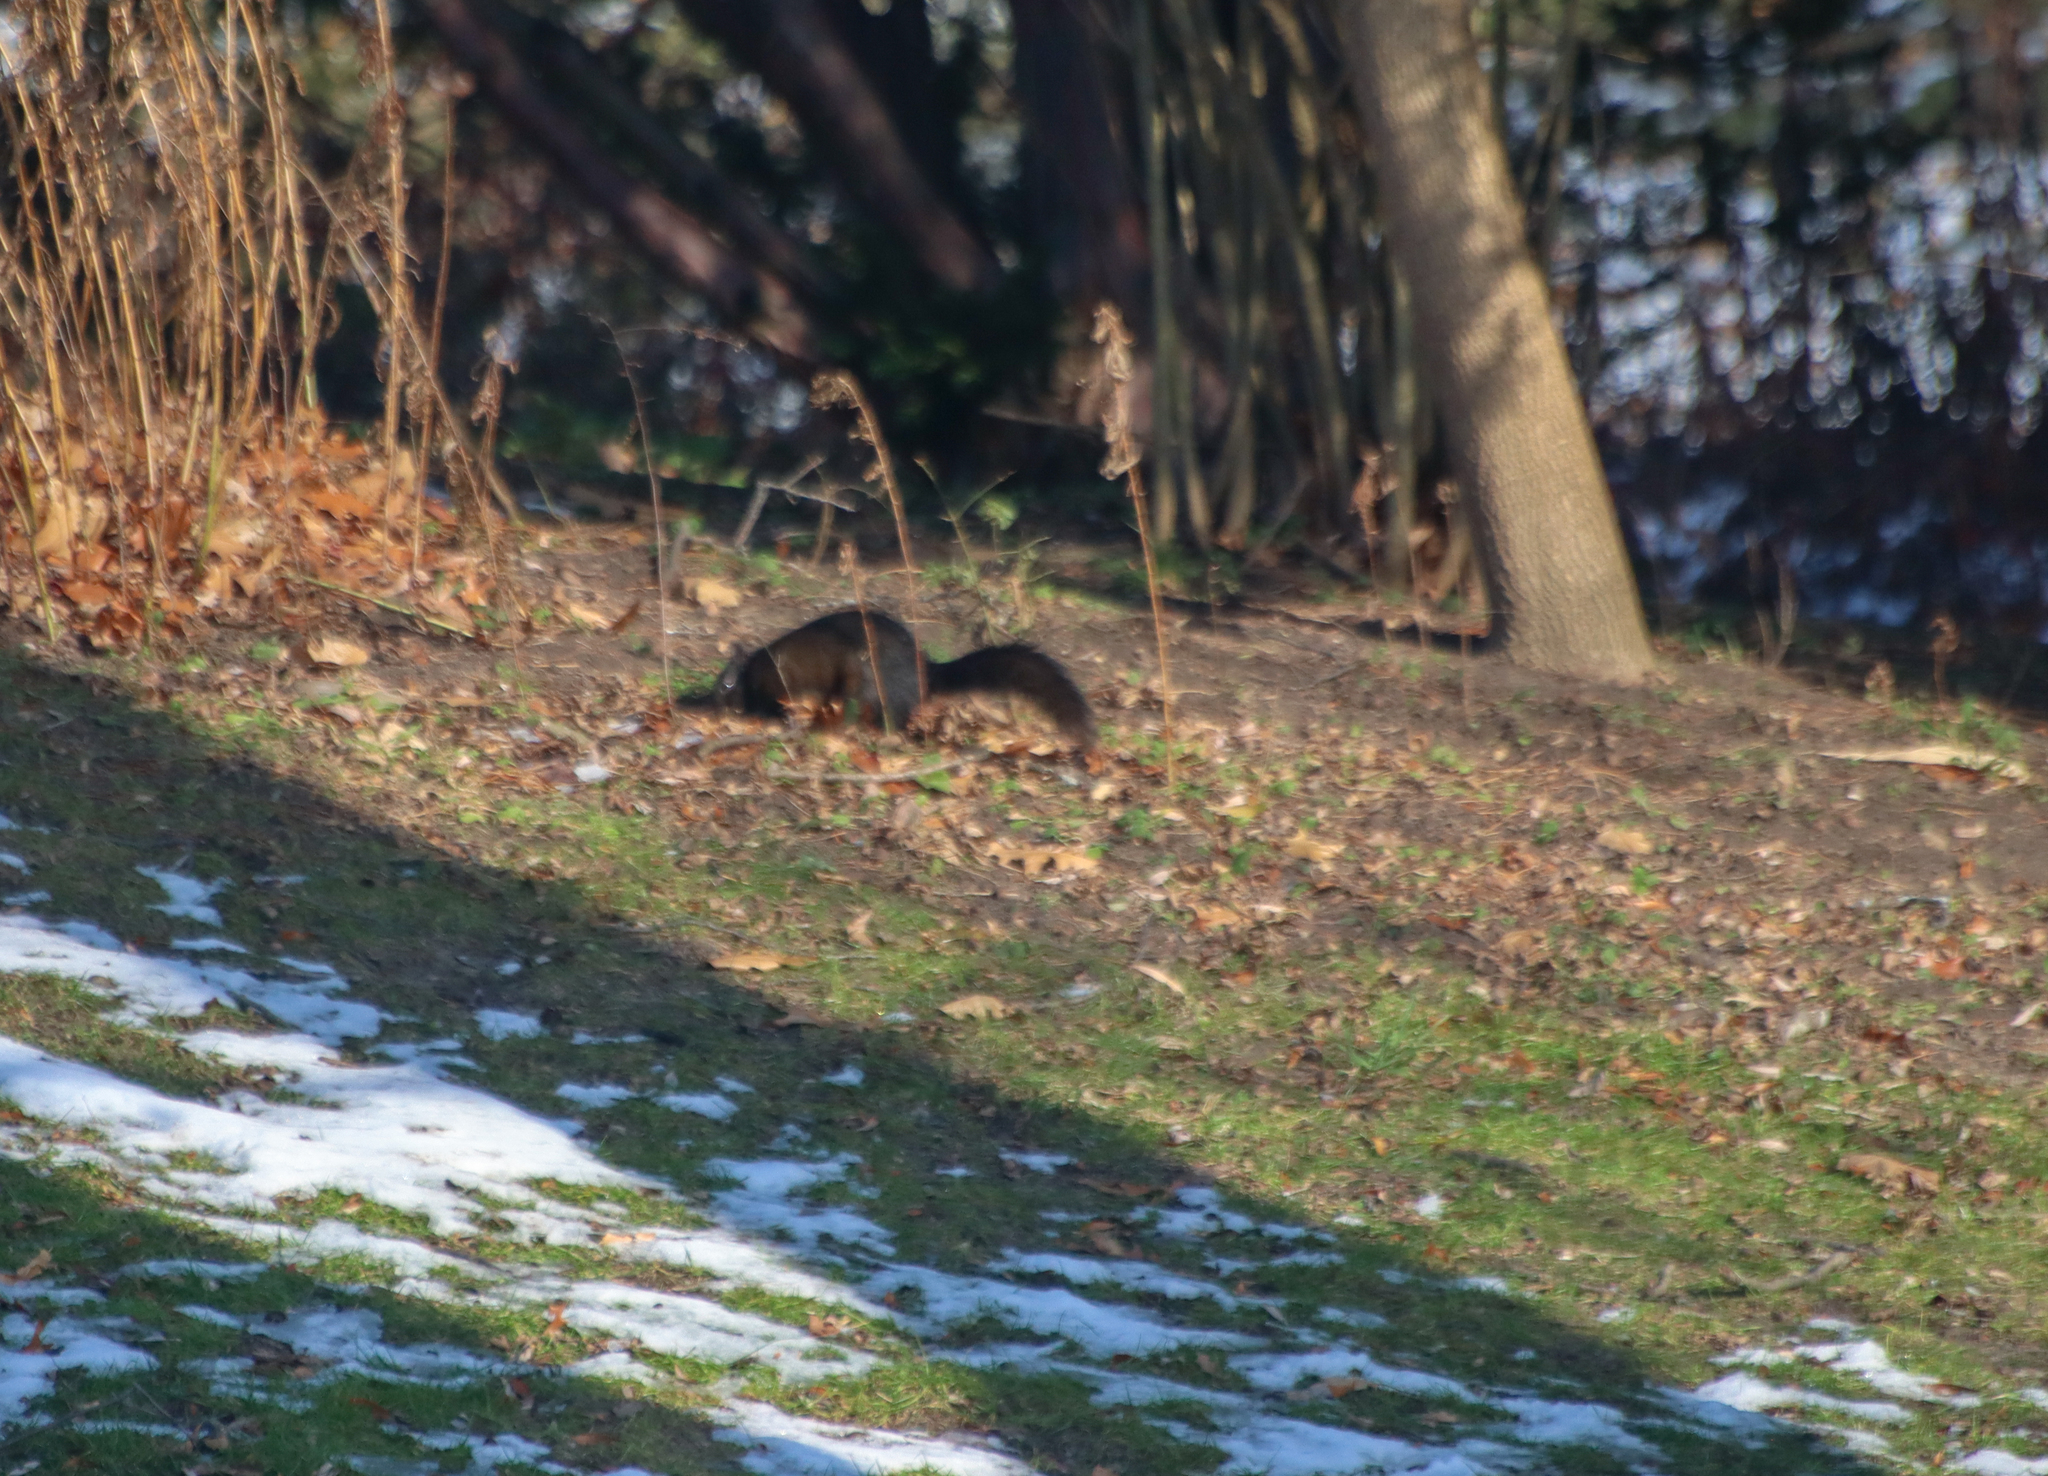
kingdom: Animalia
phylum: Chordata
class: Mammalia
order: Rodentia
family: Sciuridae
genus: Sciurus
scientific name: Sciurus carolinensis
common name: Eastern gray squirrel
